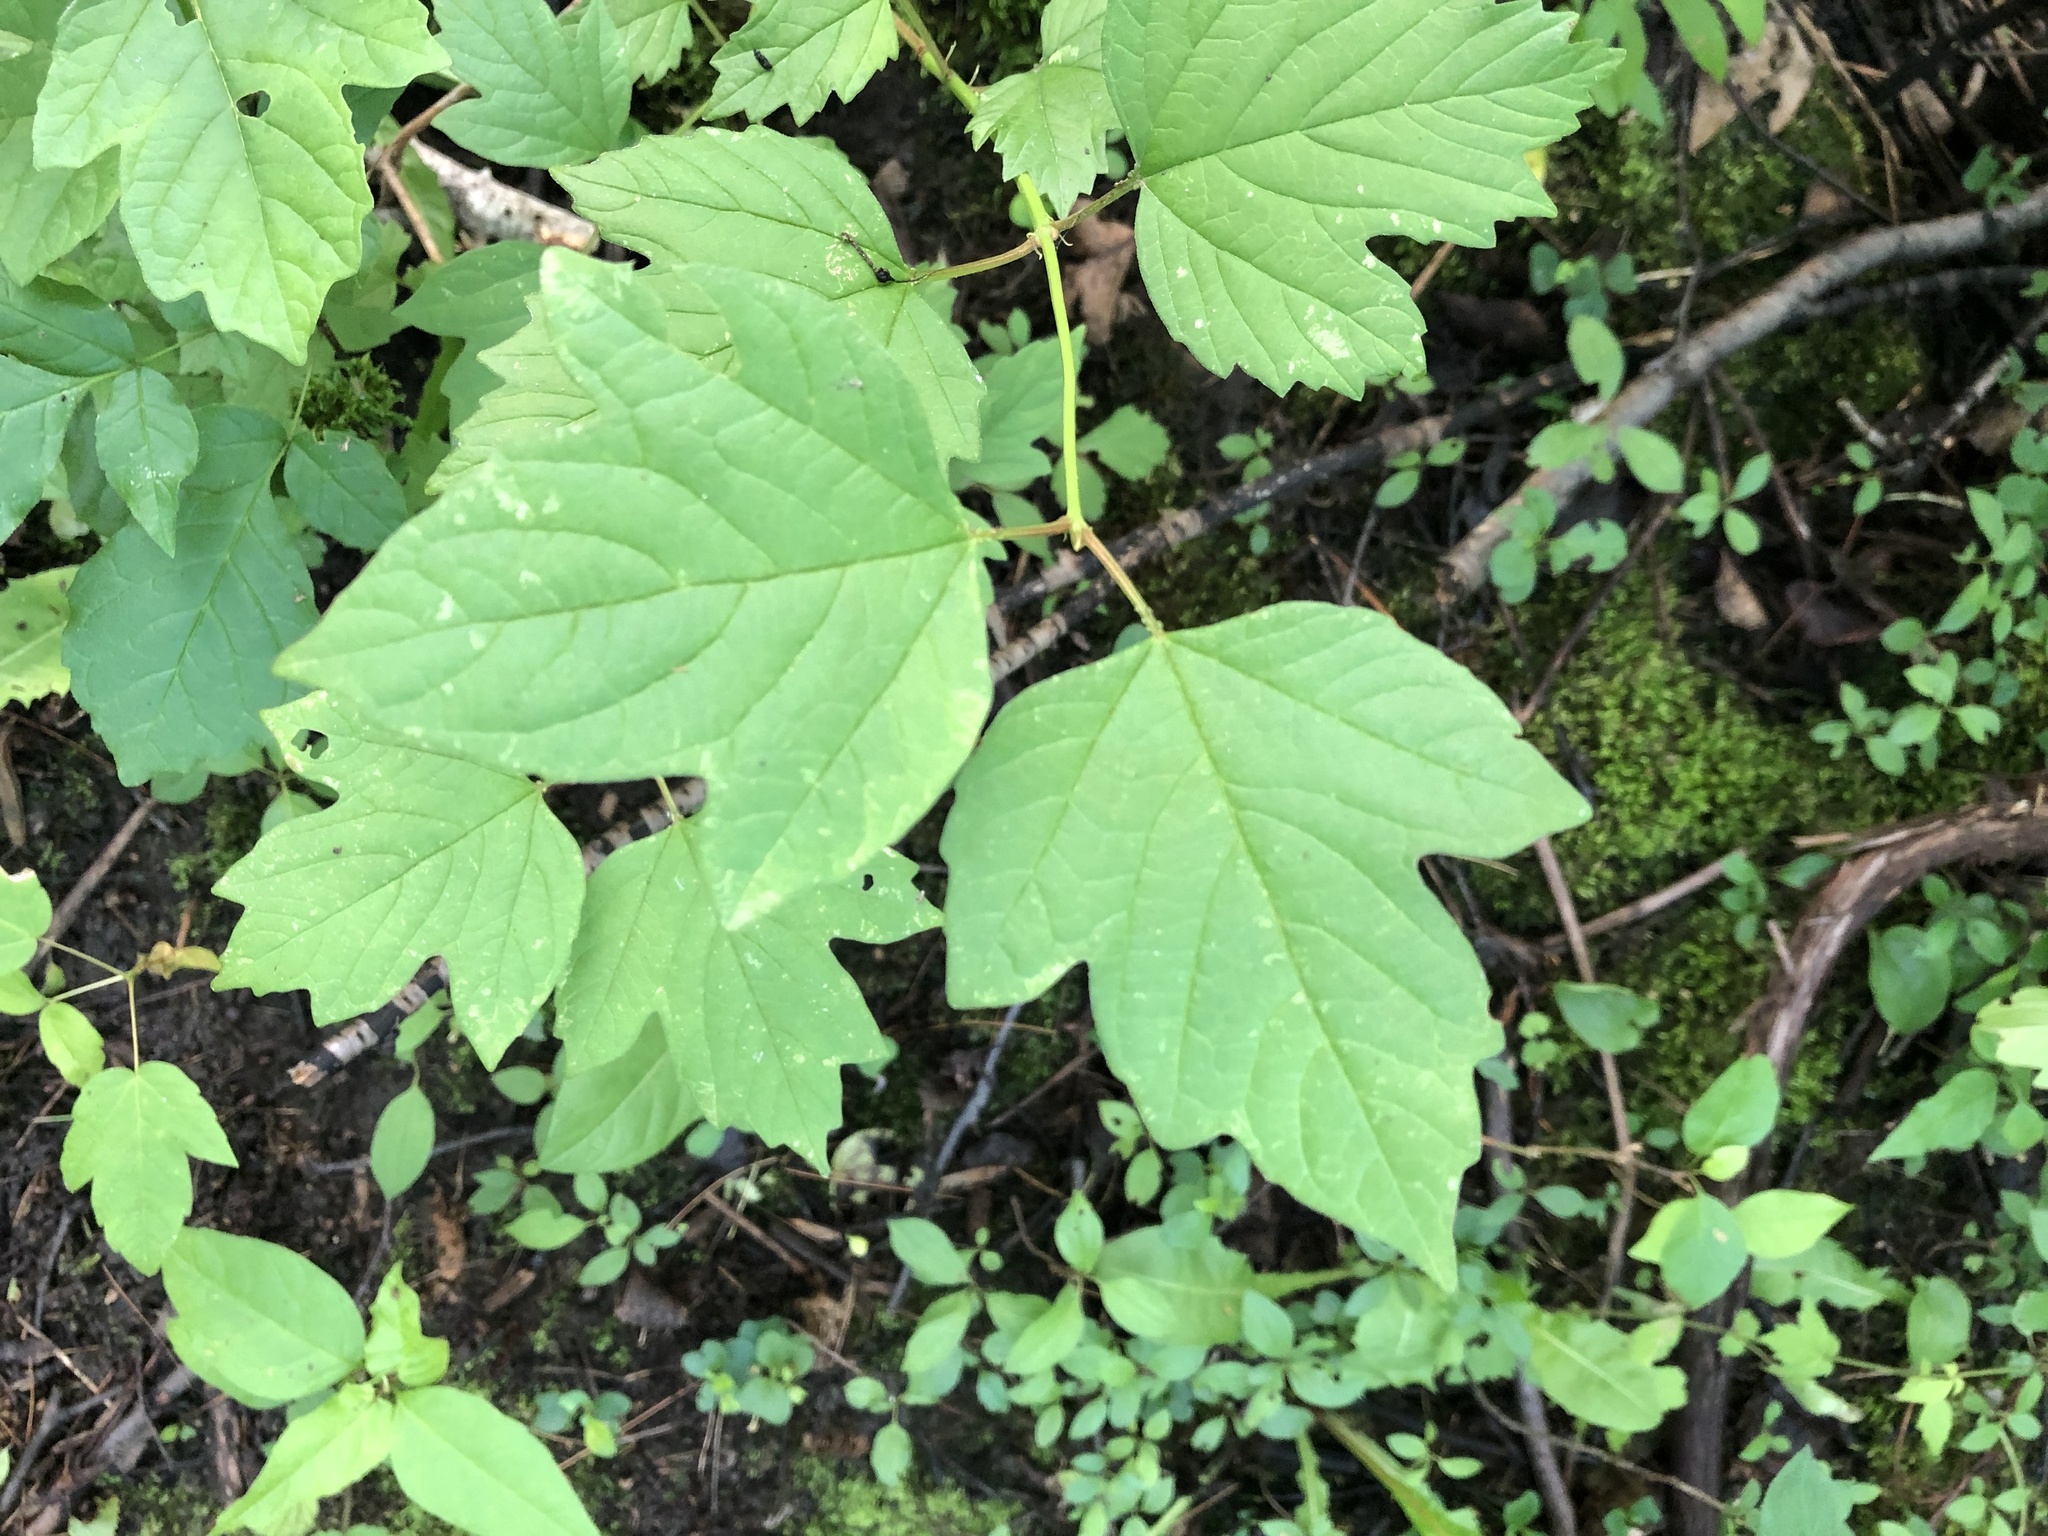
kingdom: Plantae
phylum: Tracheophyta
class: Magnoliopsida
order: Dipsacales
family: Viburnaceae
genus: Viburnum
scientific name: Viburnum opulus
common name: Guelder-rose
